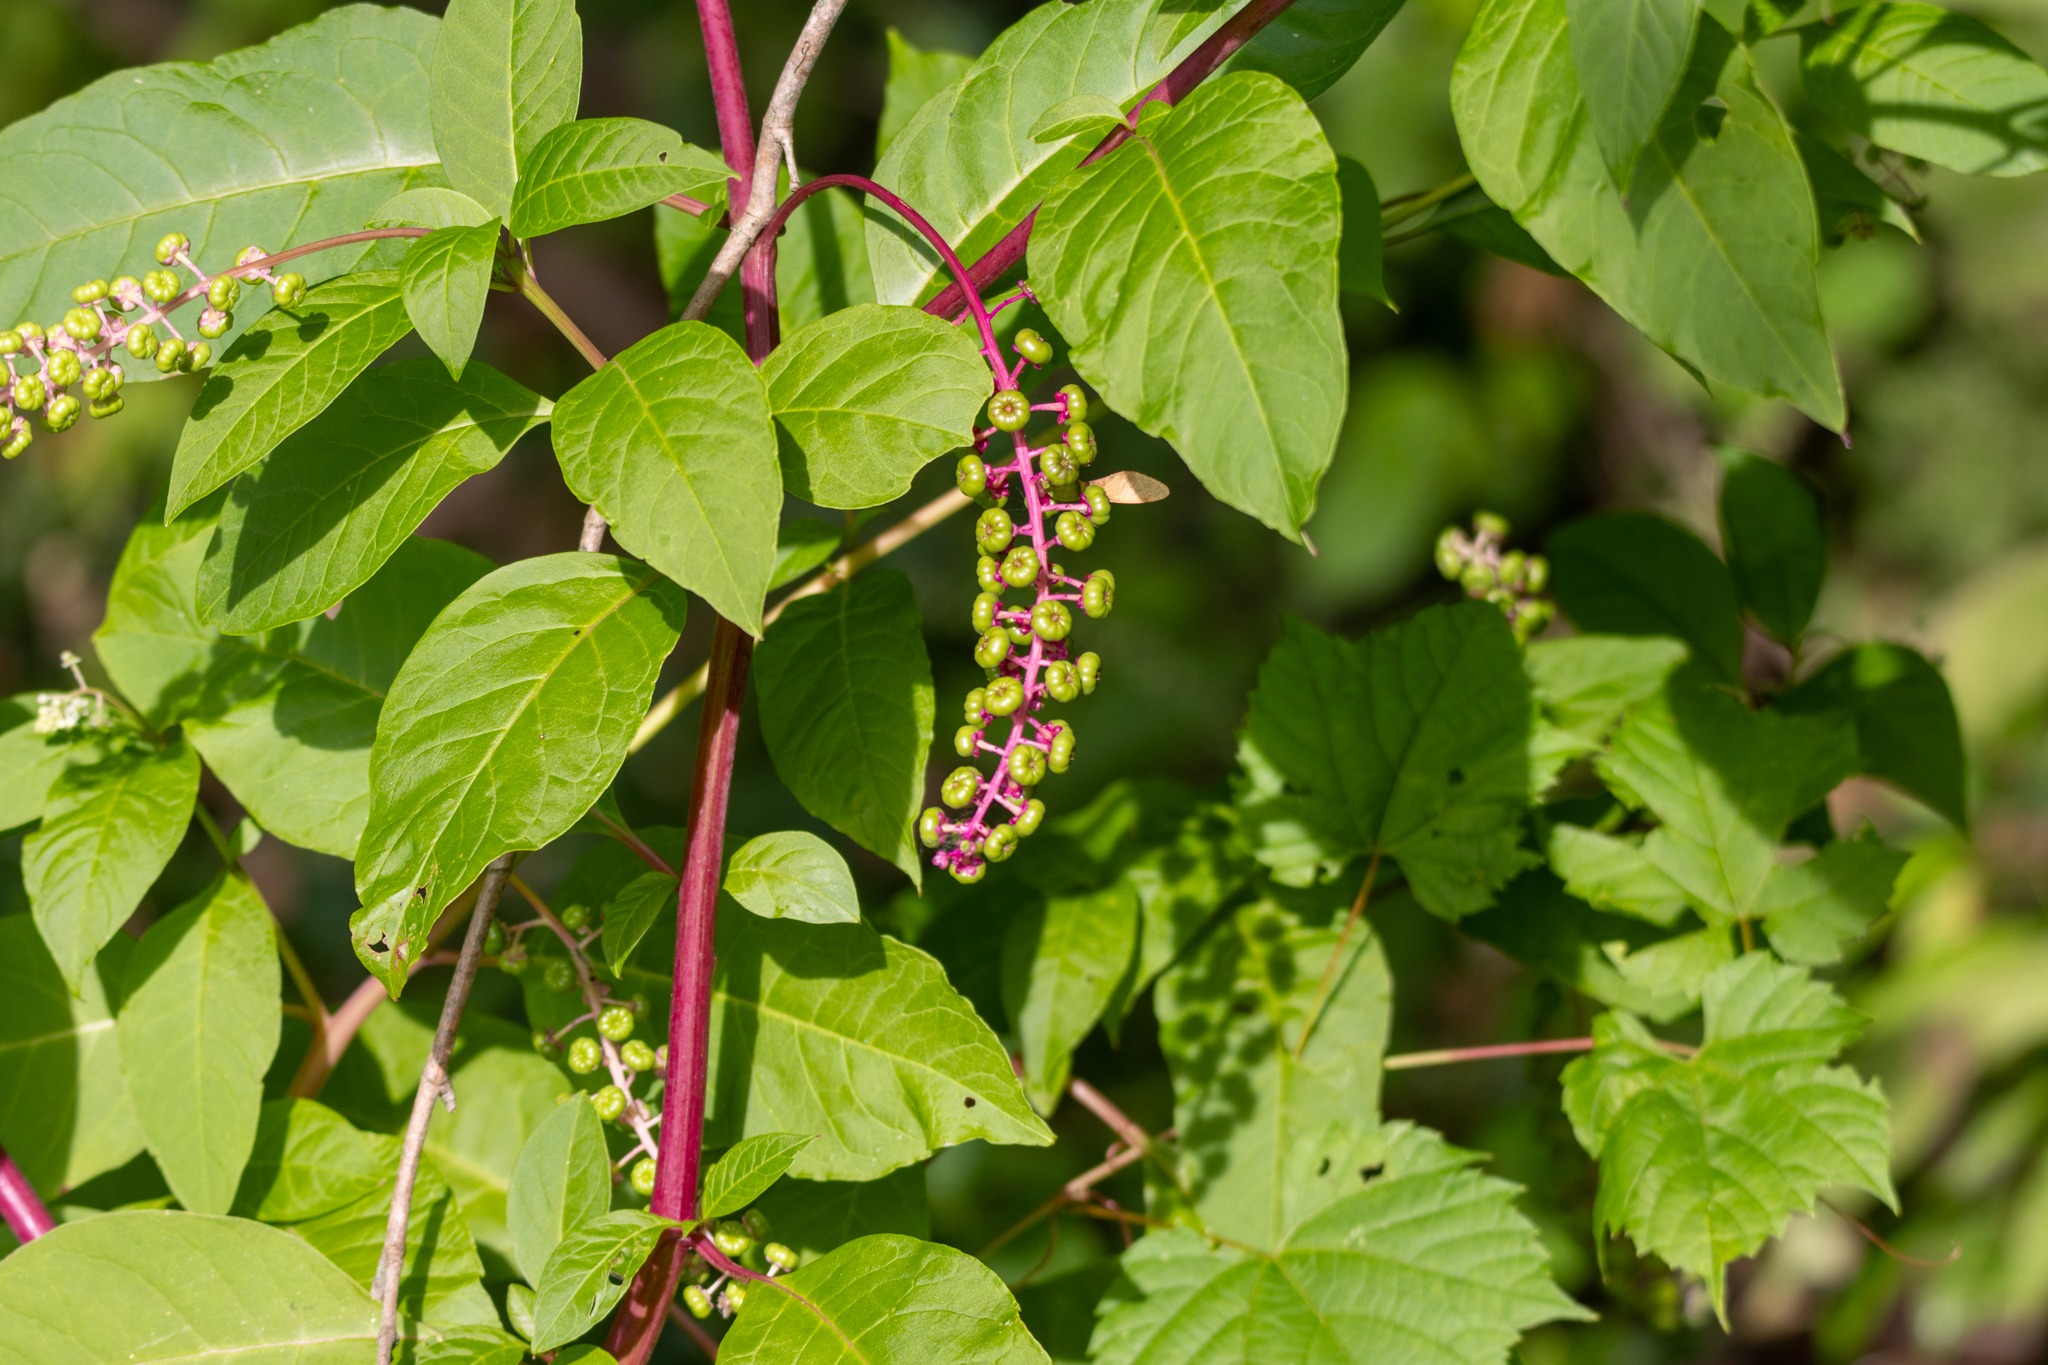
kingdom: Plantae
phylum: Tracheophyta
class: Magnoliopsida
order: Caryophyllales
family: Phytolaccaceae
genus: Phytolacca
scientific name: Phytolacca americana
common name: American pokeweed
